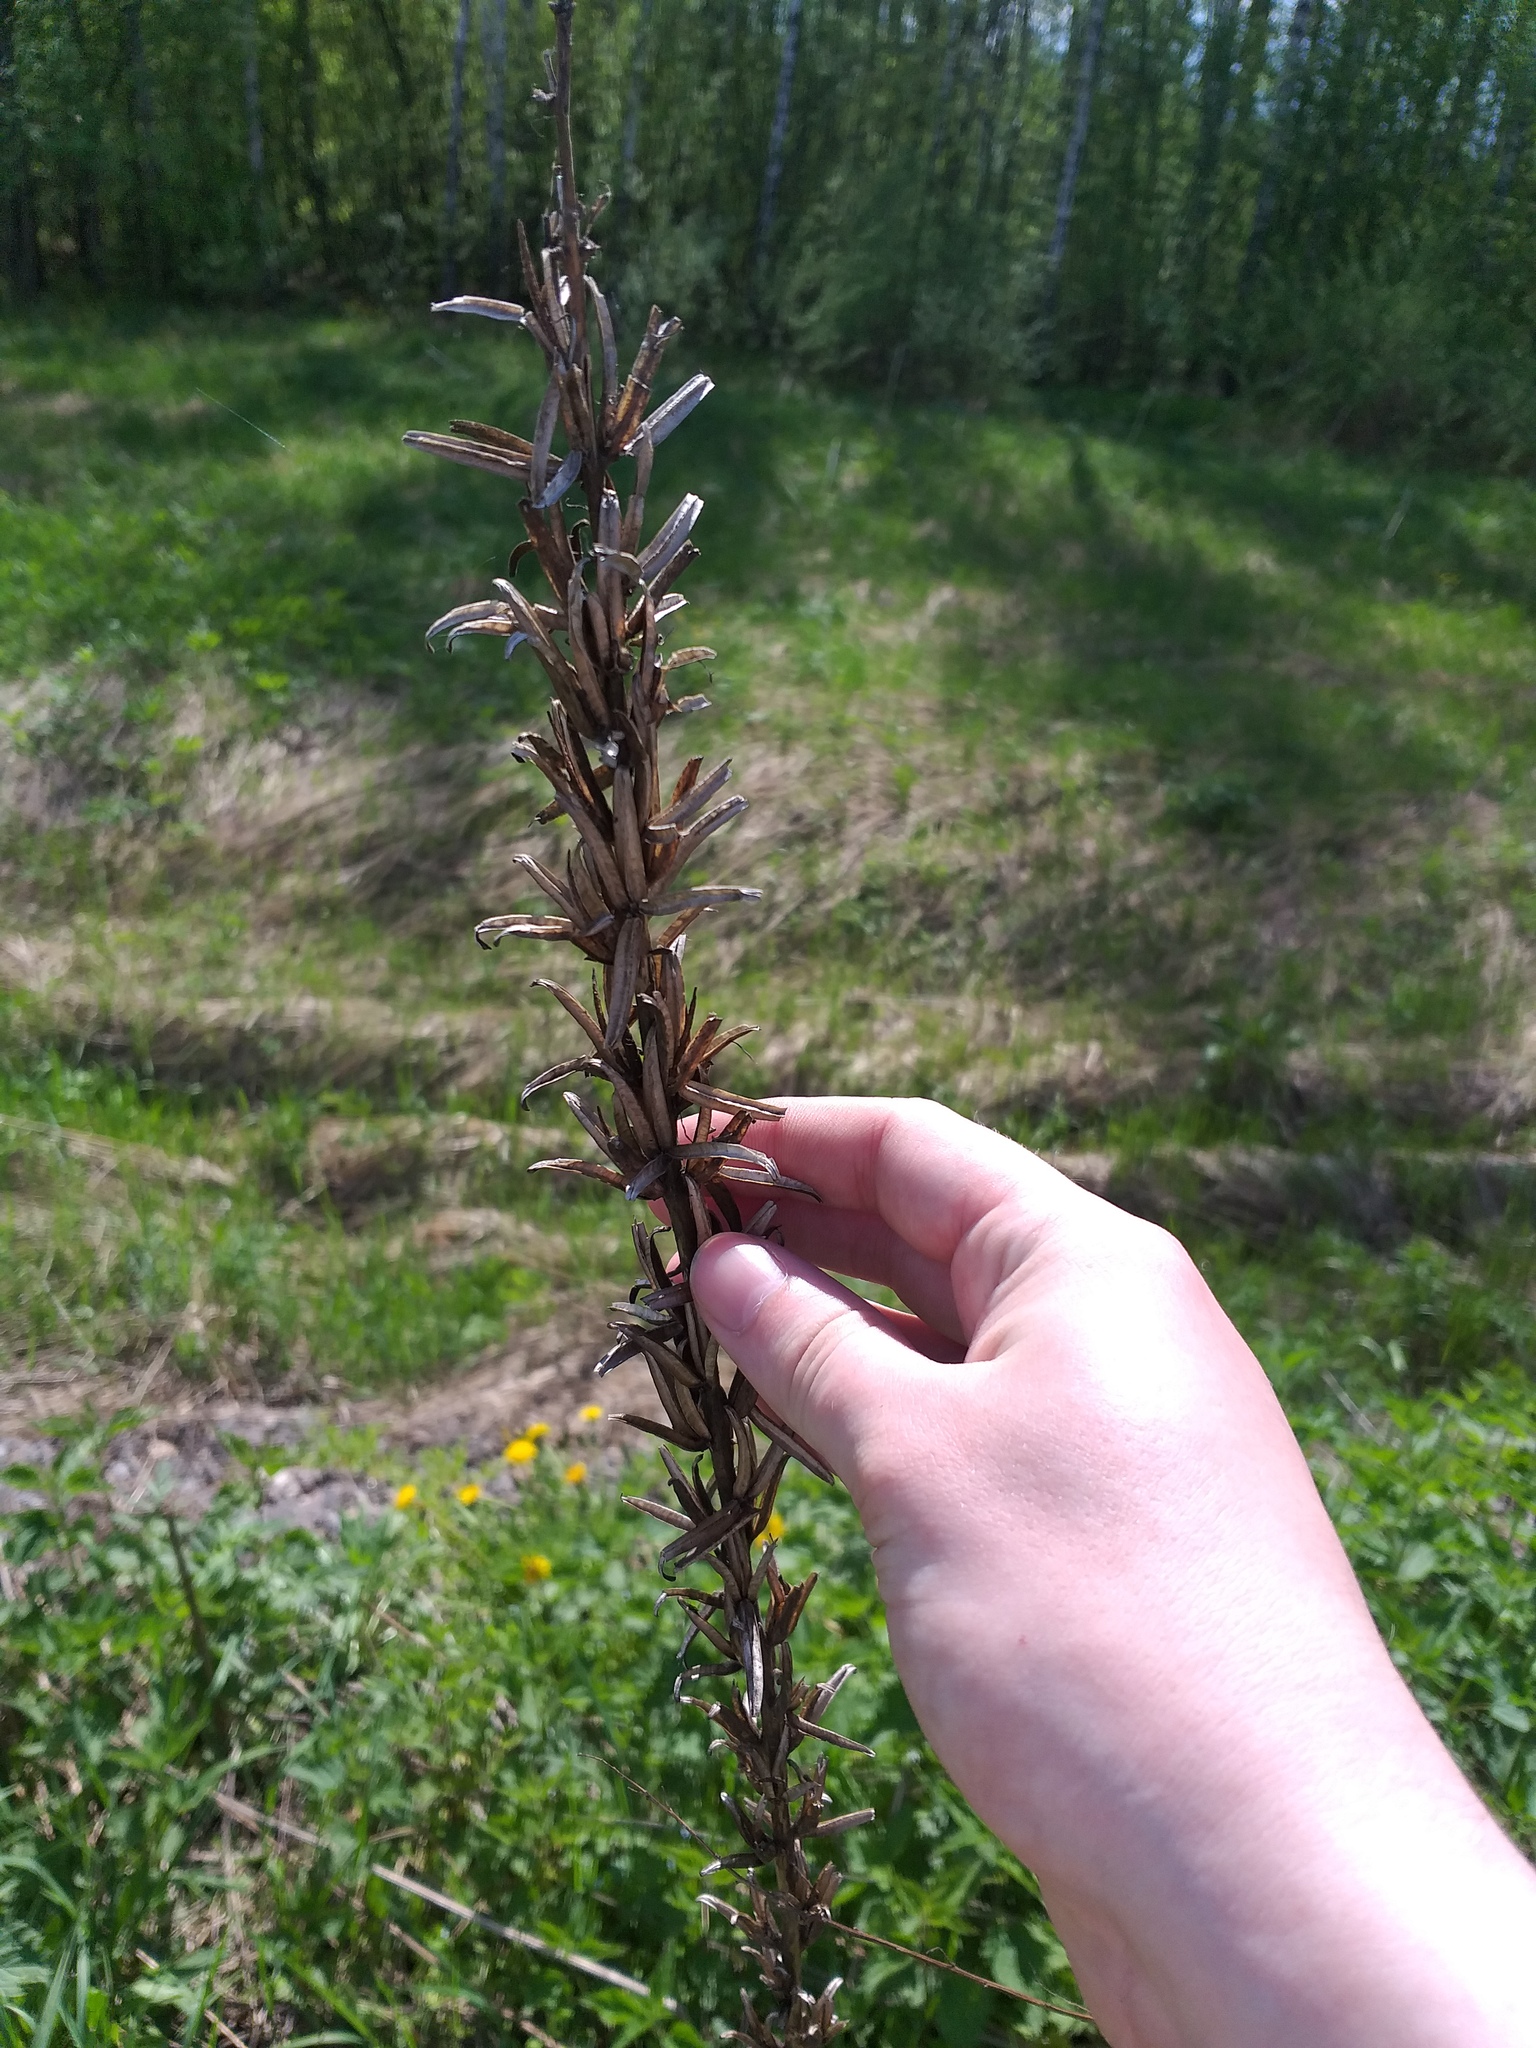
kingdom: Plantae
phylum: Tracheophyta
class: Magnoliopsida
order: Myrtales
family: Onagraceae
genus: Oenothera
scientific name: Oenothera
